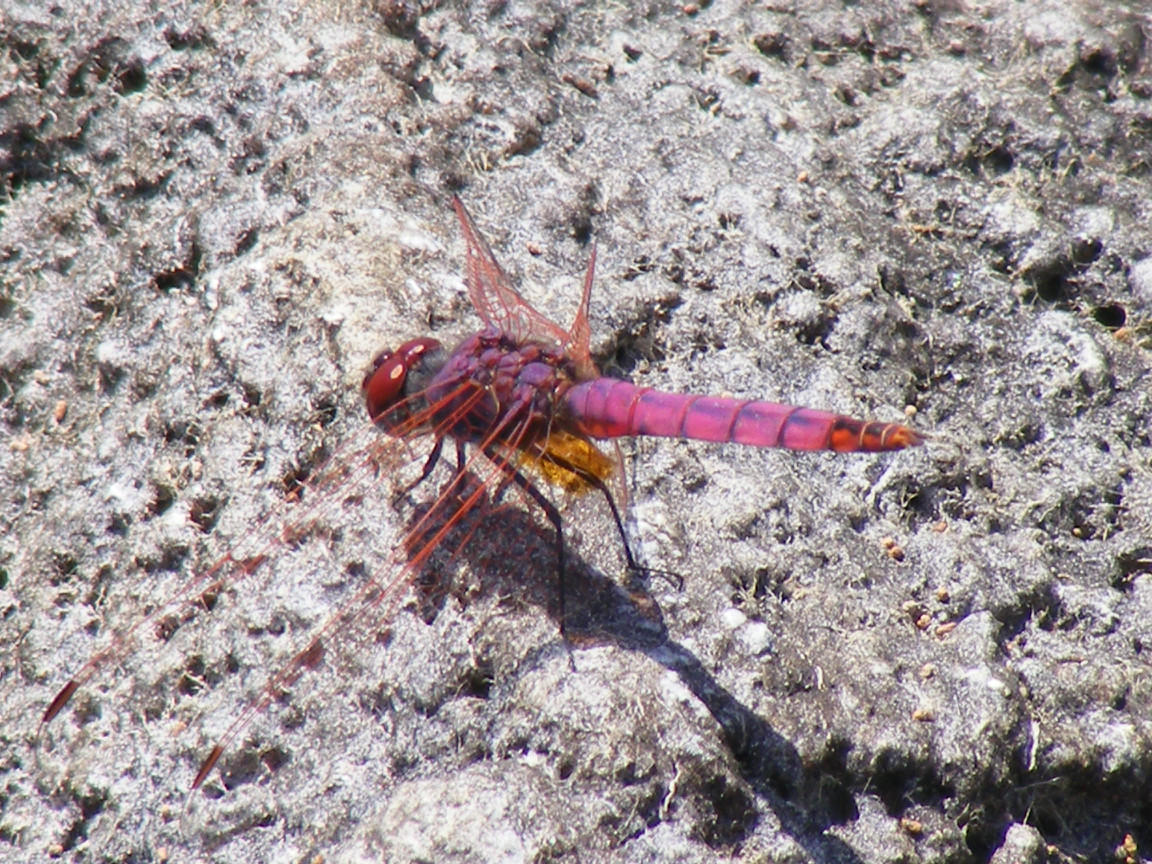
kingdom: Animalia
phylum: Arthropoda
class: Insecta
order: Odonata
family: Libellulidae
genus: Trithemis
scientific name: Trithemis annulata
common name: Violet dropwing
